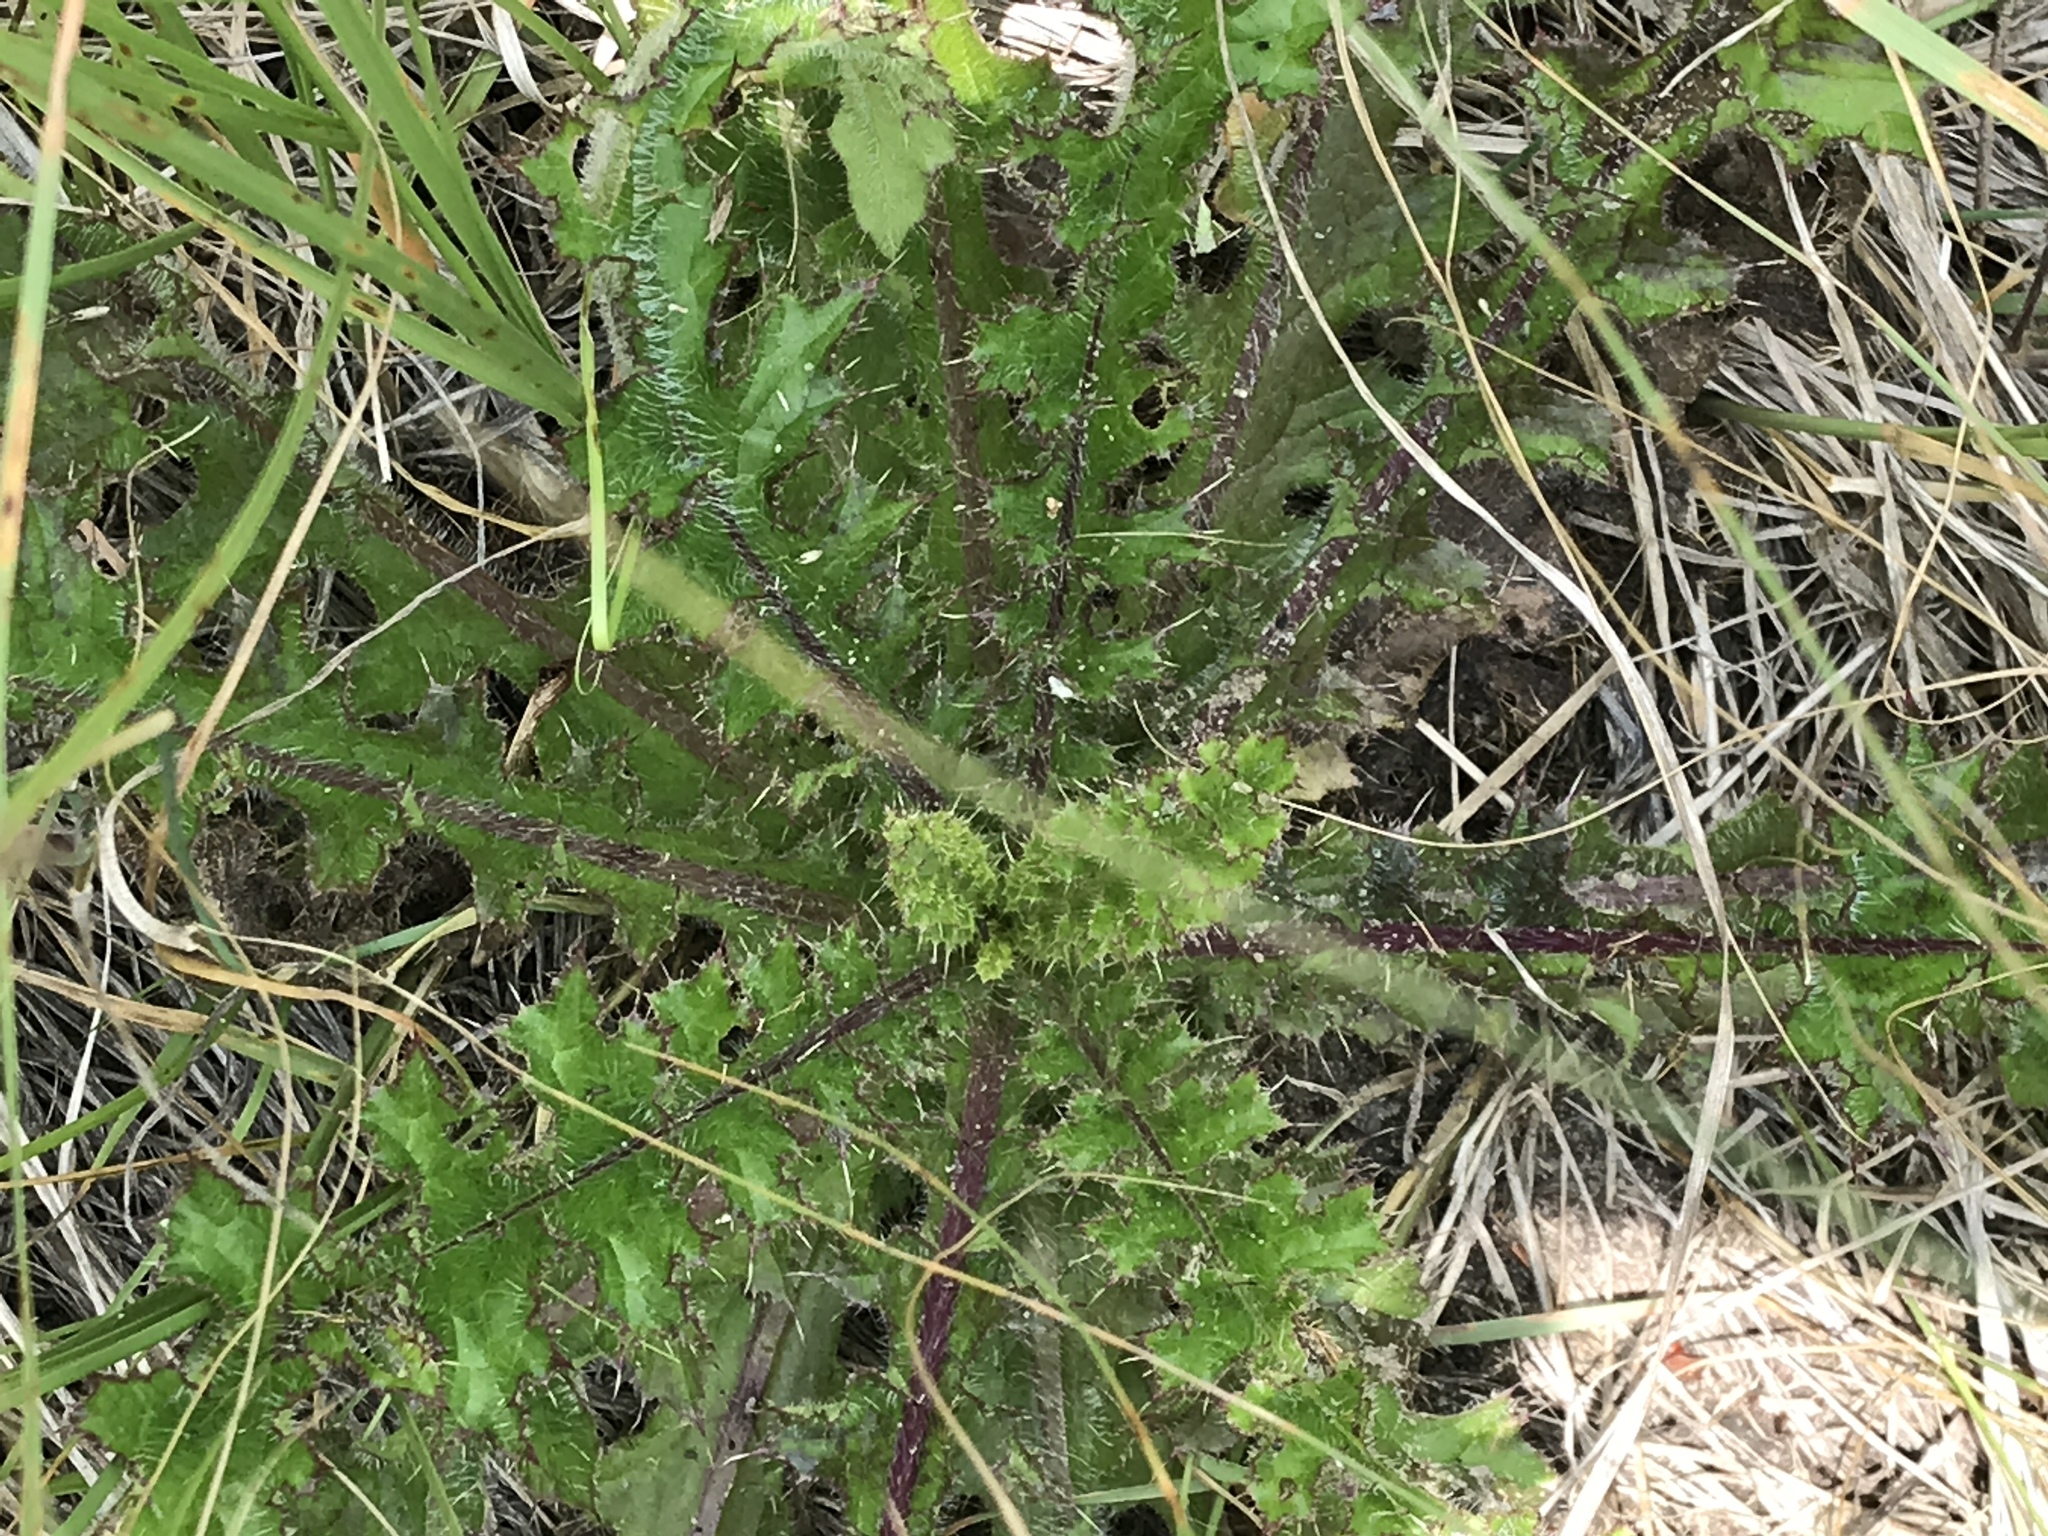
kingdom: Plantae
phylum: Tracheophyta
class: Magnoliopsida
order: Asterales
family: Asteraceae
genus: Cirsium
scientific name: Cirsium pumilum
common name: Pasture thistle
